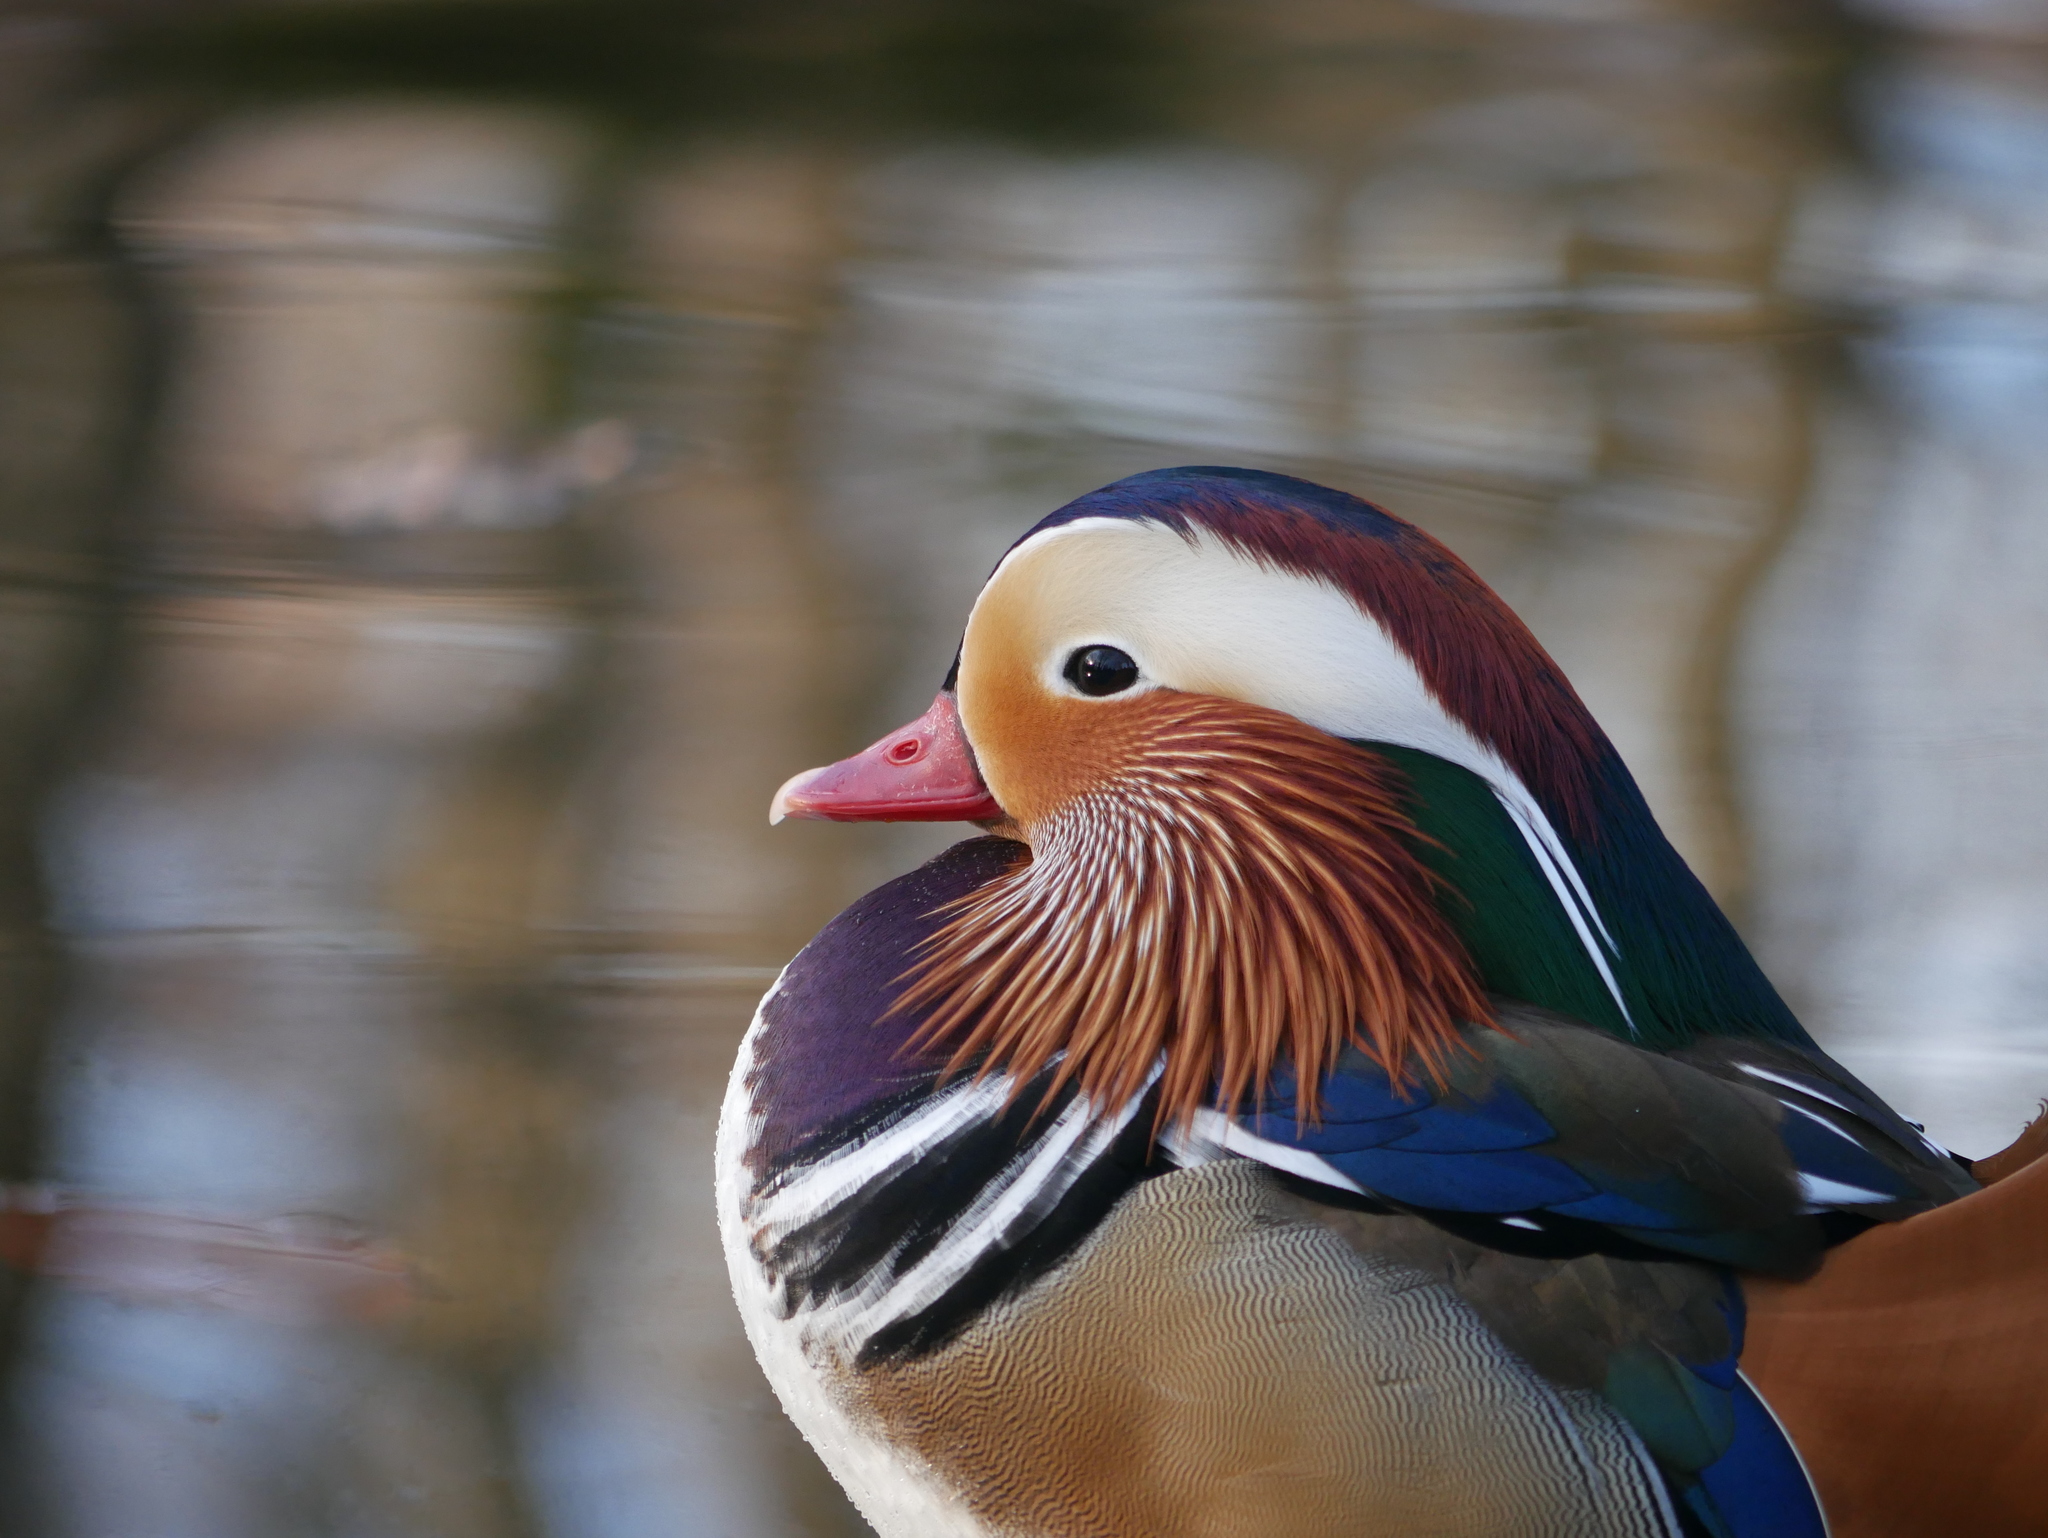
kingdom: Animalia
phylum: Chordata
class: Aves
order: Anseriformes
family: Anatidae
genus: Aix
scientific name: Aix galericulata
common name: Mandarin duck
